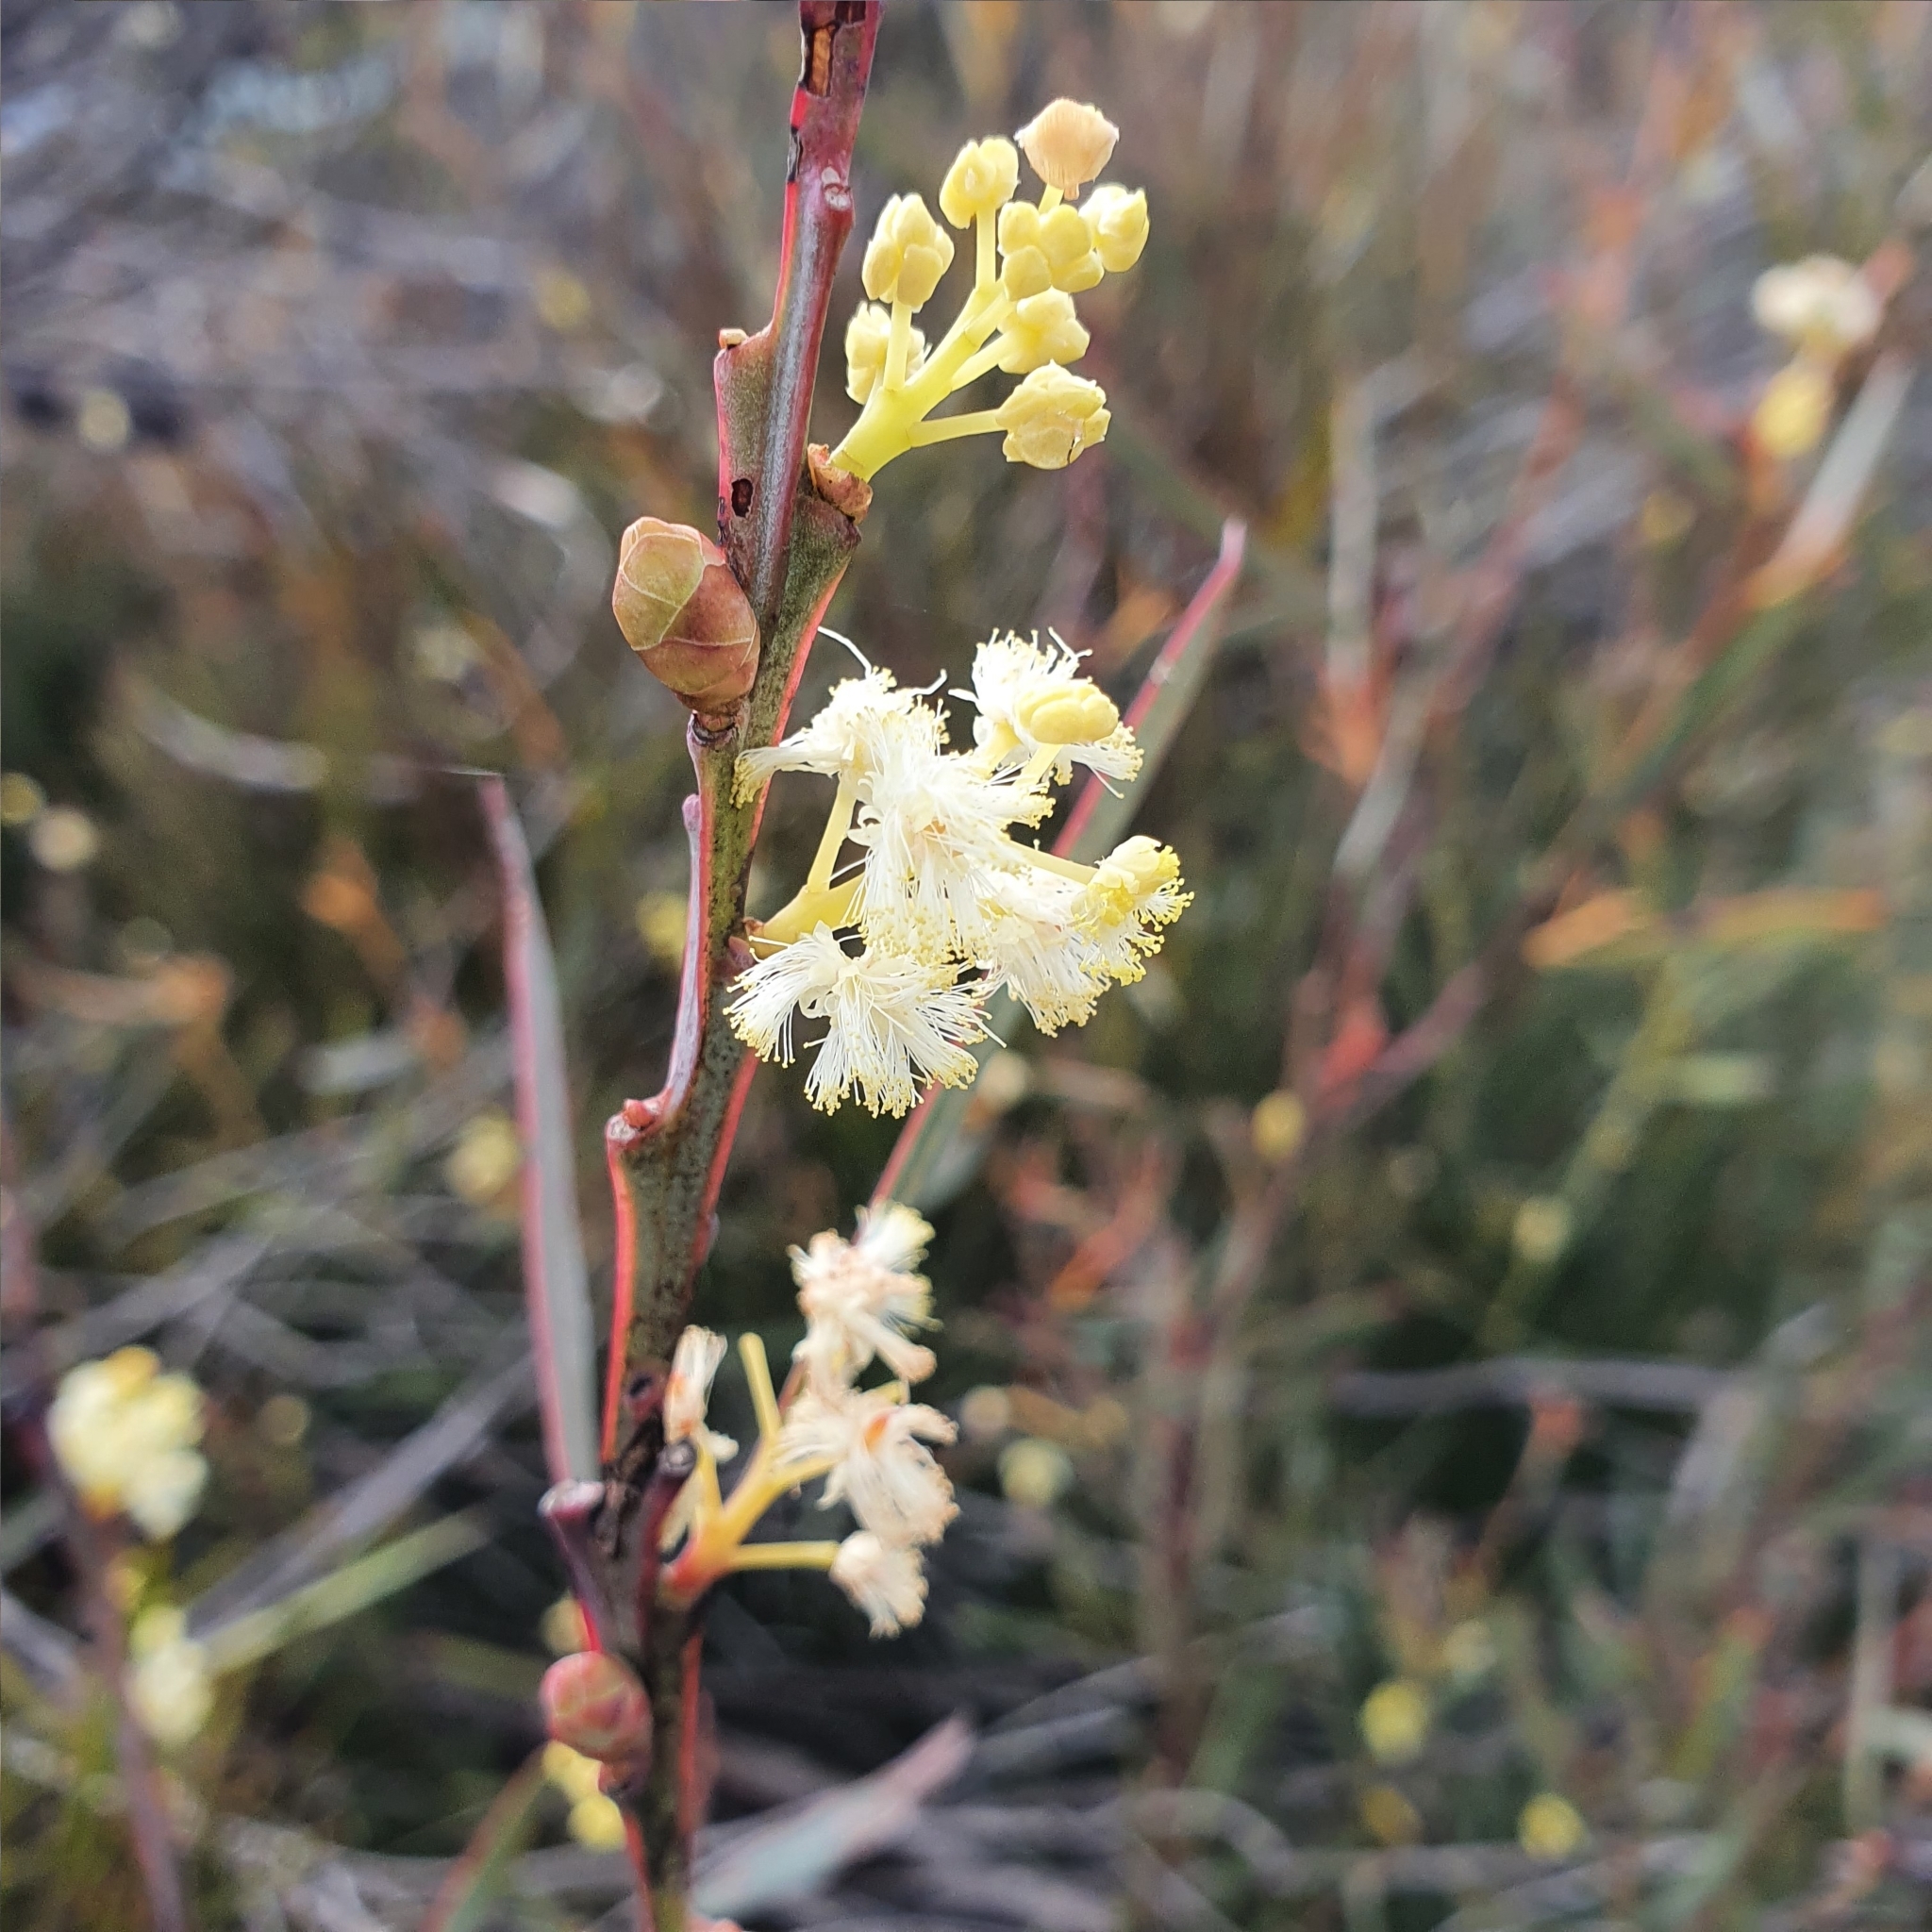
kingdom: Plantae
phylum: Tracheophyta
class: Magnoliopsida
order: Fabales
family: Fabaceae
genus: Acacia
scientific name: Acacia suaveolens
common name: Sweet acacia
